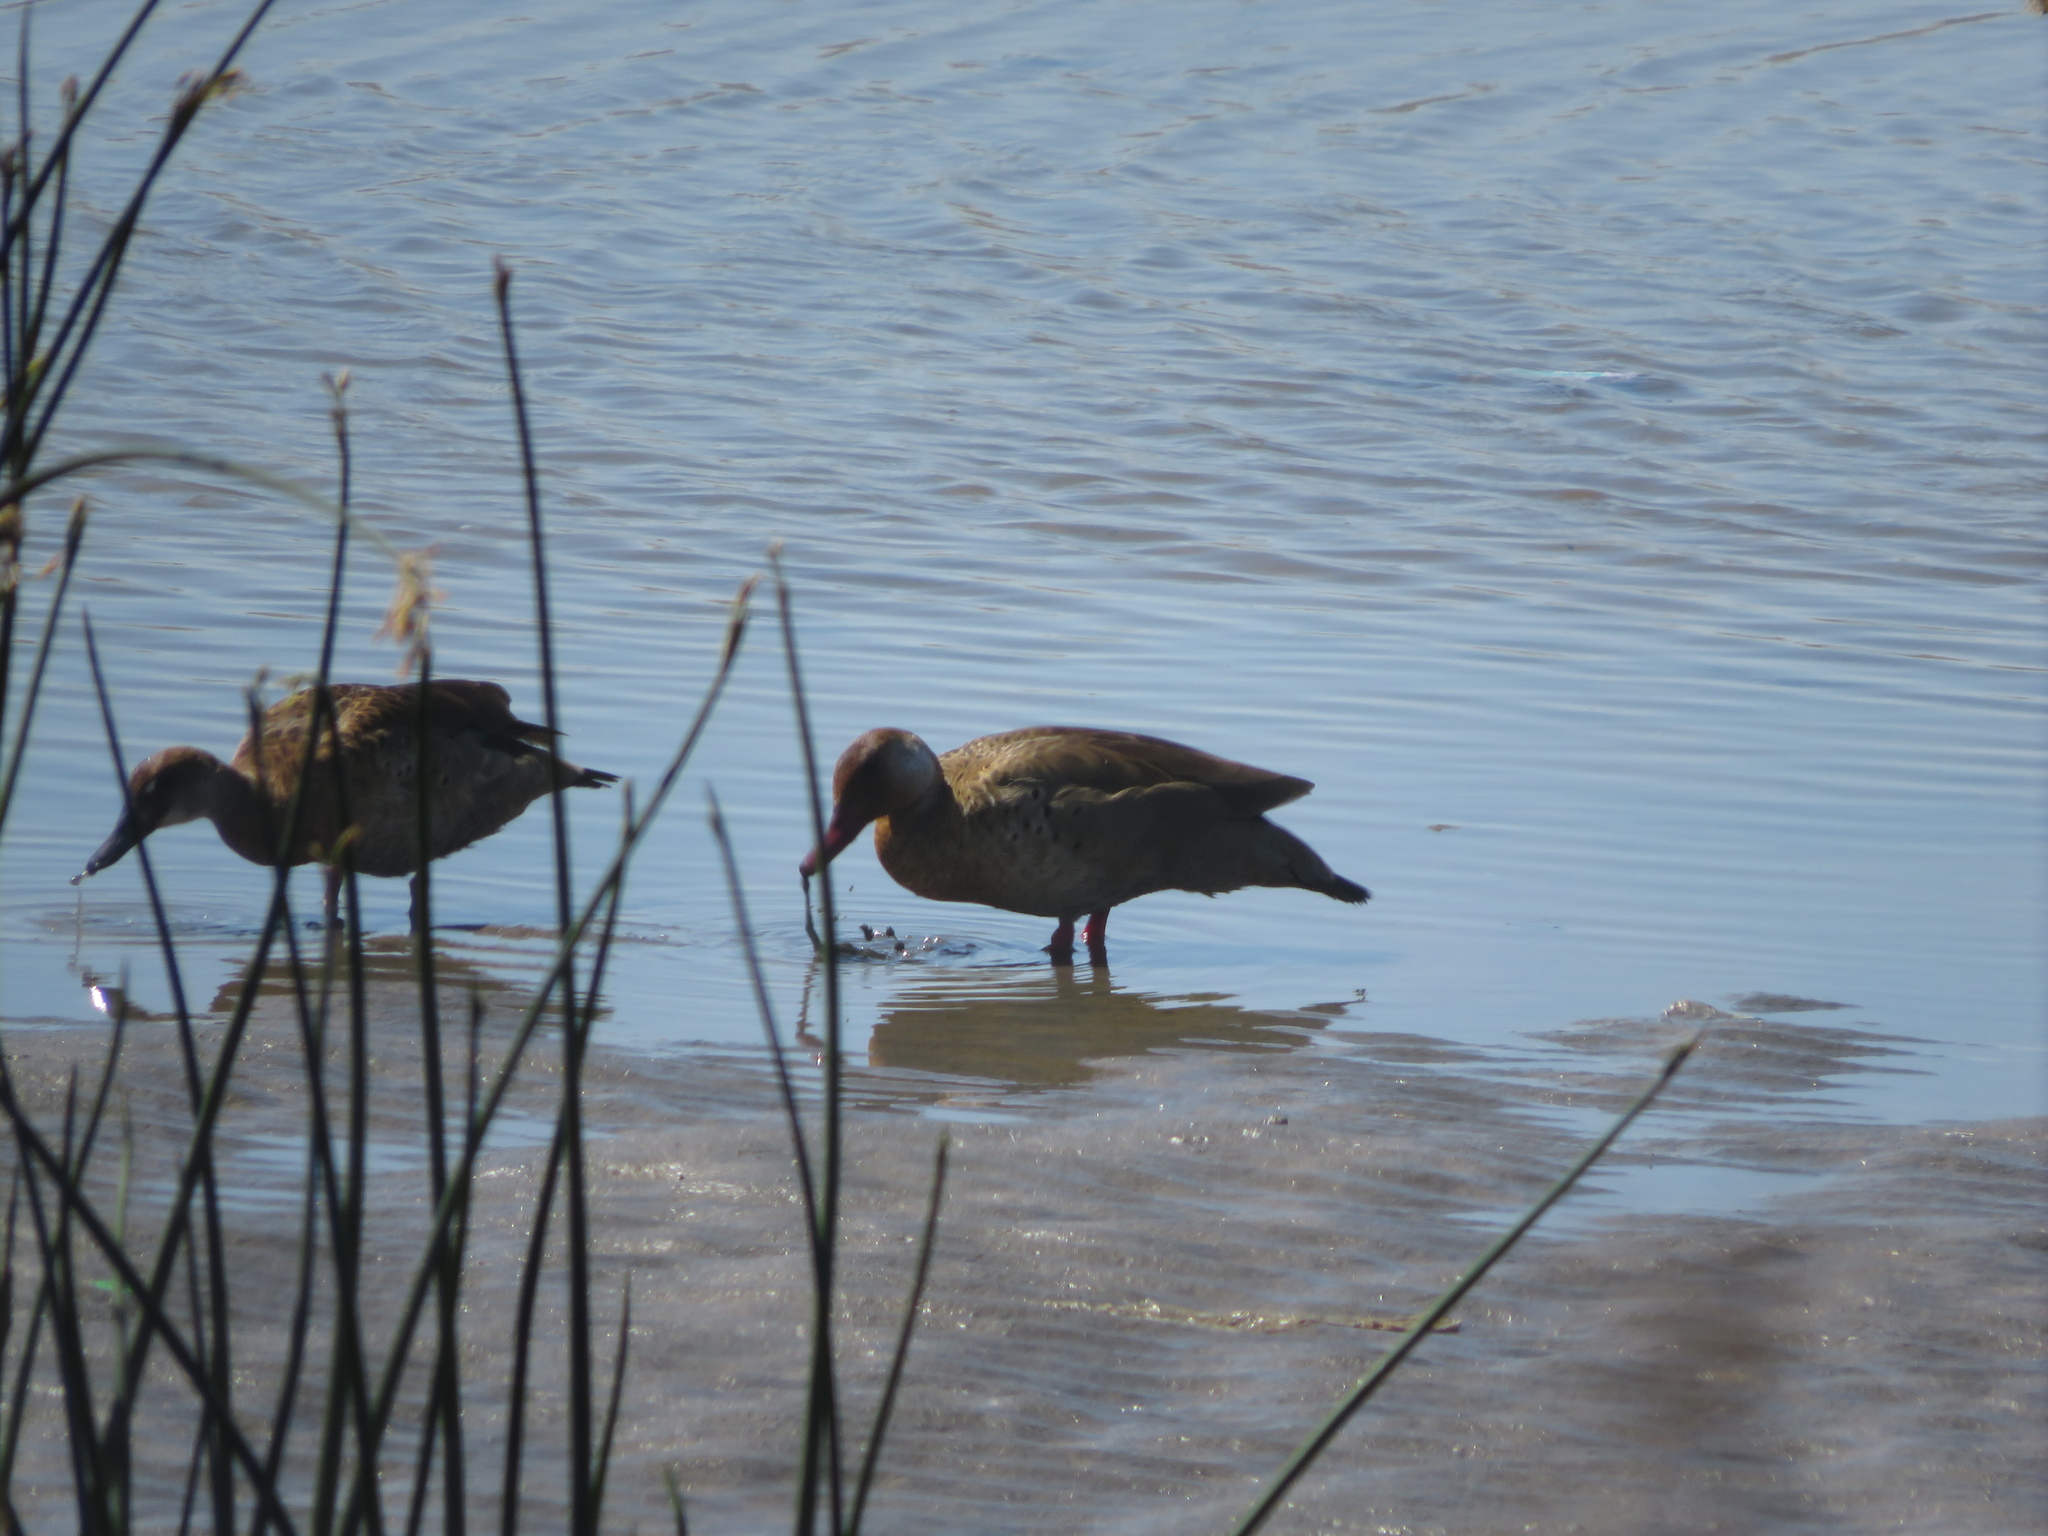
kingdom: Animalia
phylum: Chordata
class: Aves
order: Anseriformes
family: Anatidae
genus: Amazonetta
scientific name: Amazonetta brasiliensis
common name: Brazilian teal
